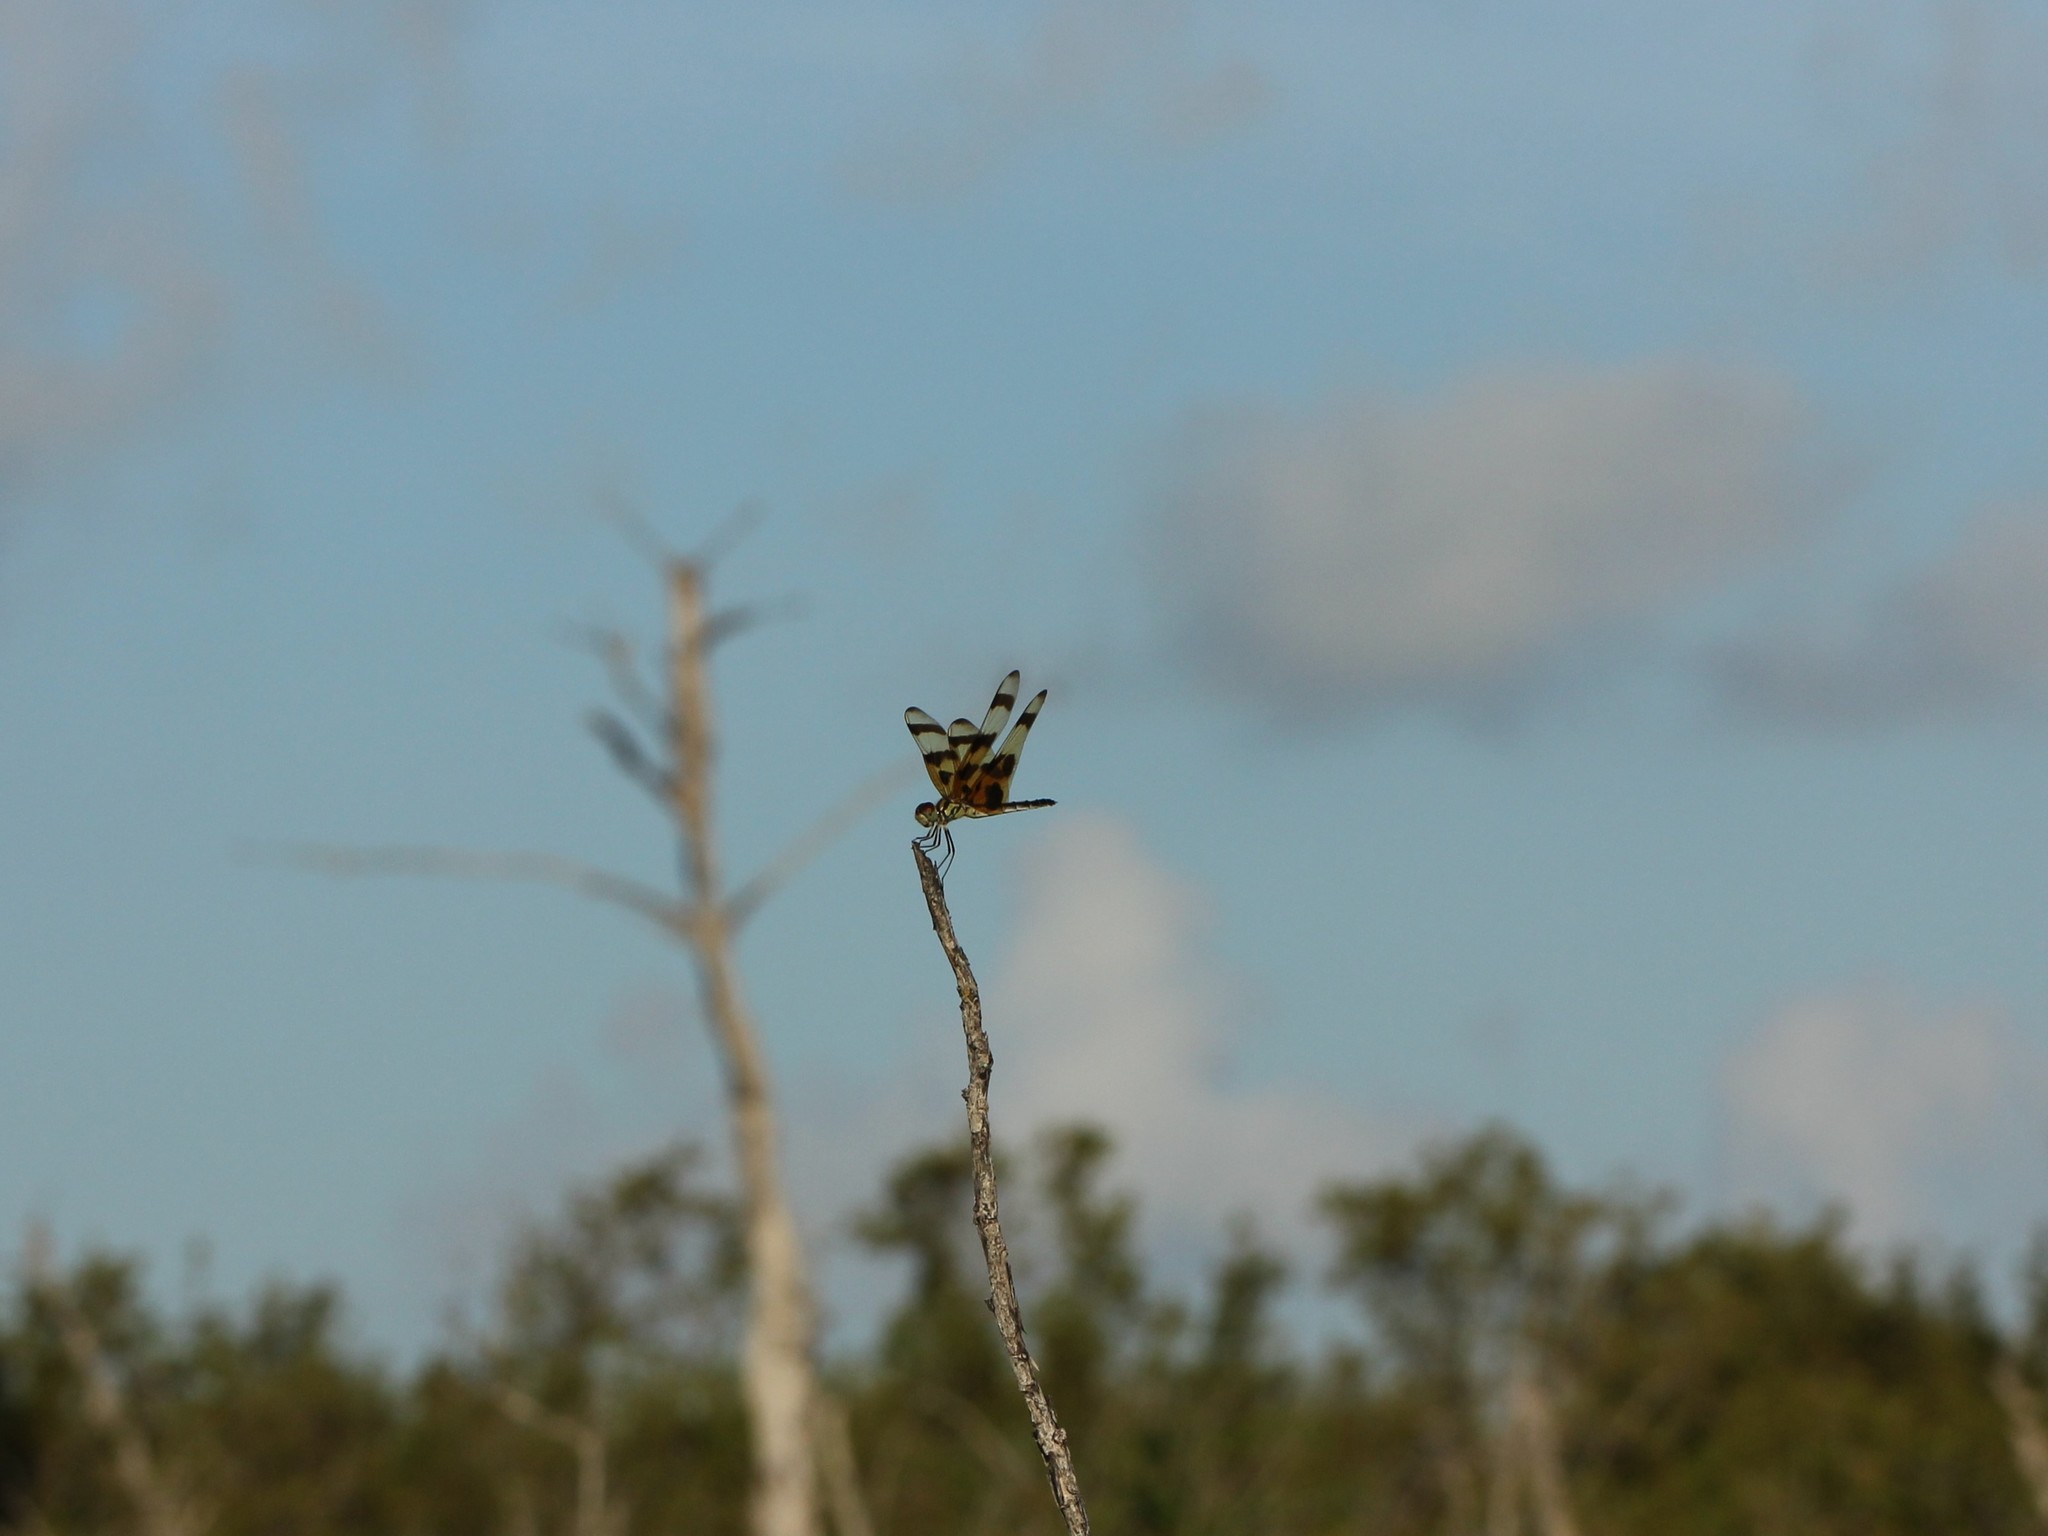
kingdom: Animalia
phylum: Arthropoda
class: Insecta
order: Odonata
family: Libellulidae
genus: Celithemis
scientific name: Celithemis eponina
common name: Halloween pennant
